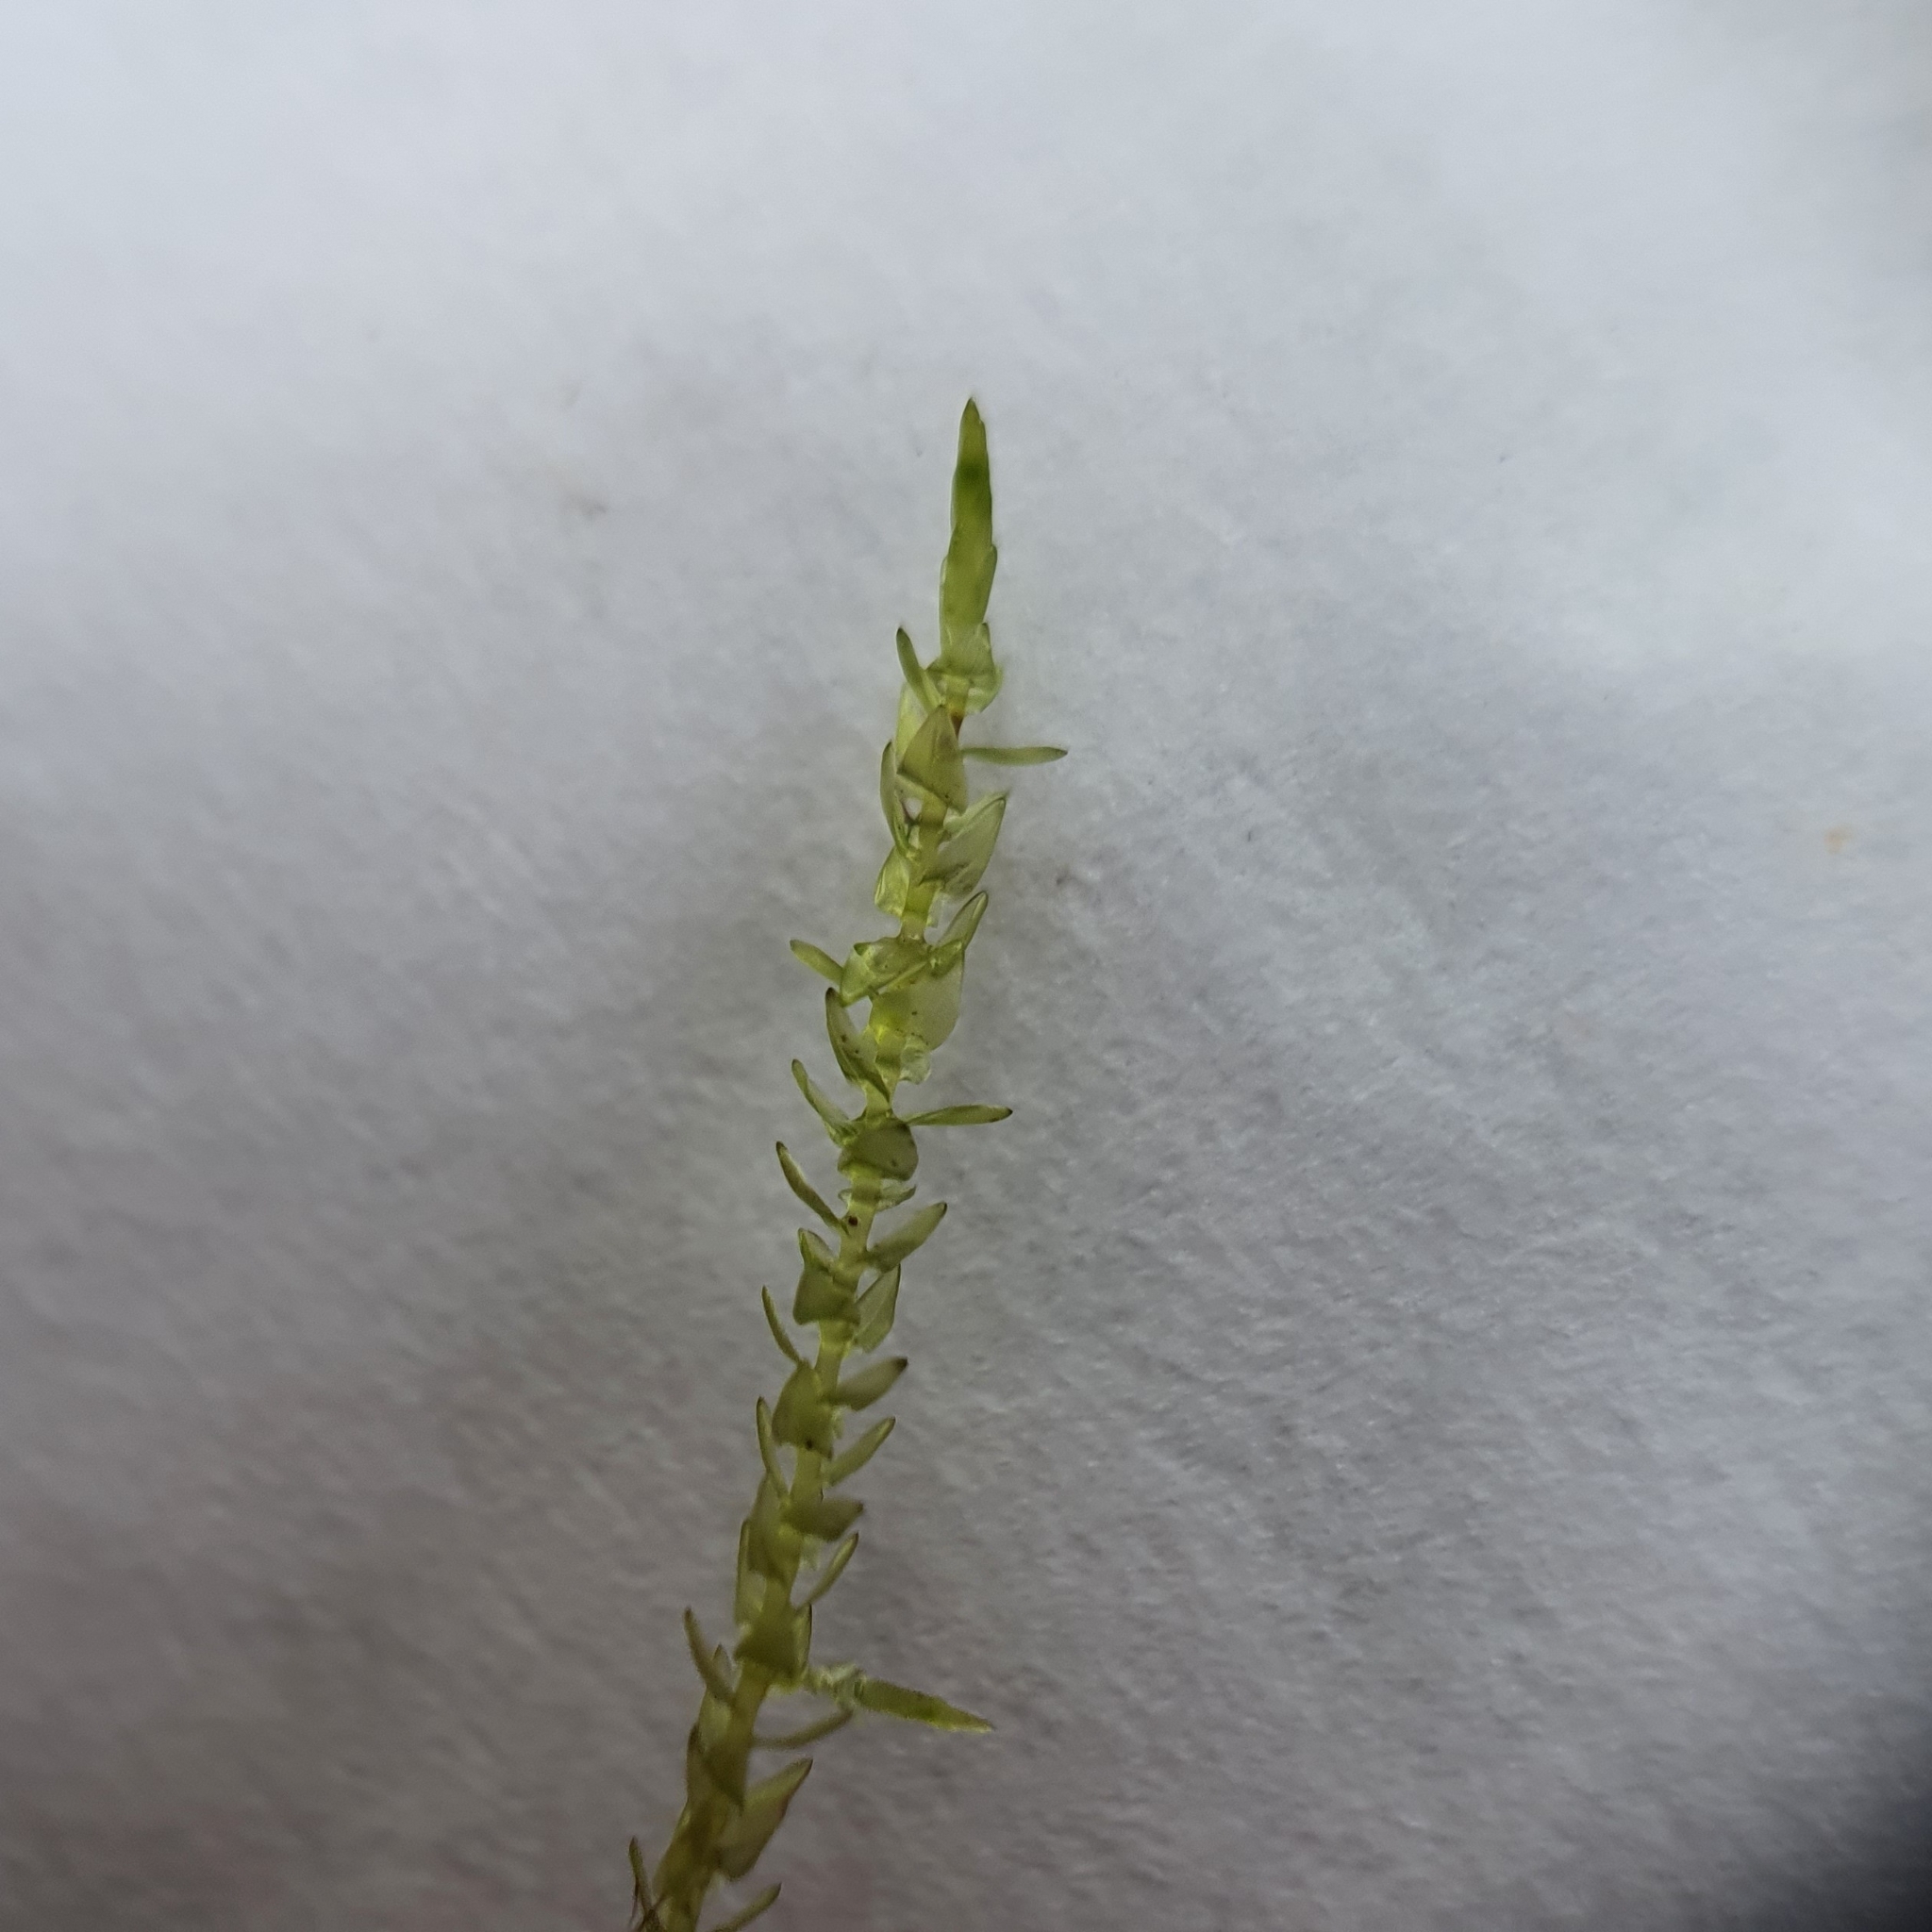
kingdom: Plantae
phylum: Bryophyta
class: Bryopsida
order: Hypnales
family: Calliergonaceae
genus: Calliergon
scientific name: Calliergon cordifolium
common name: Heart-leaved spear moss
